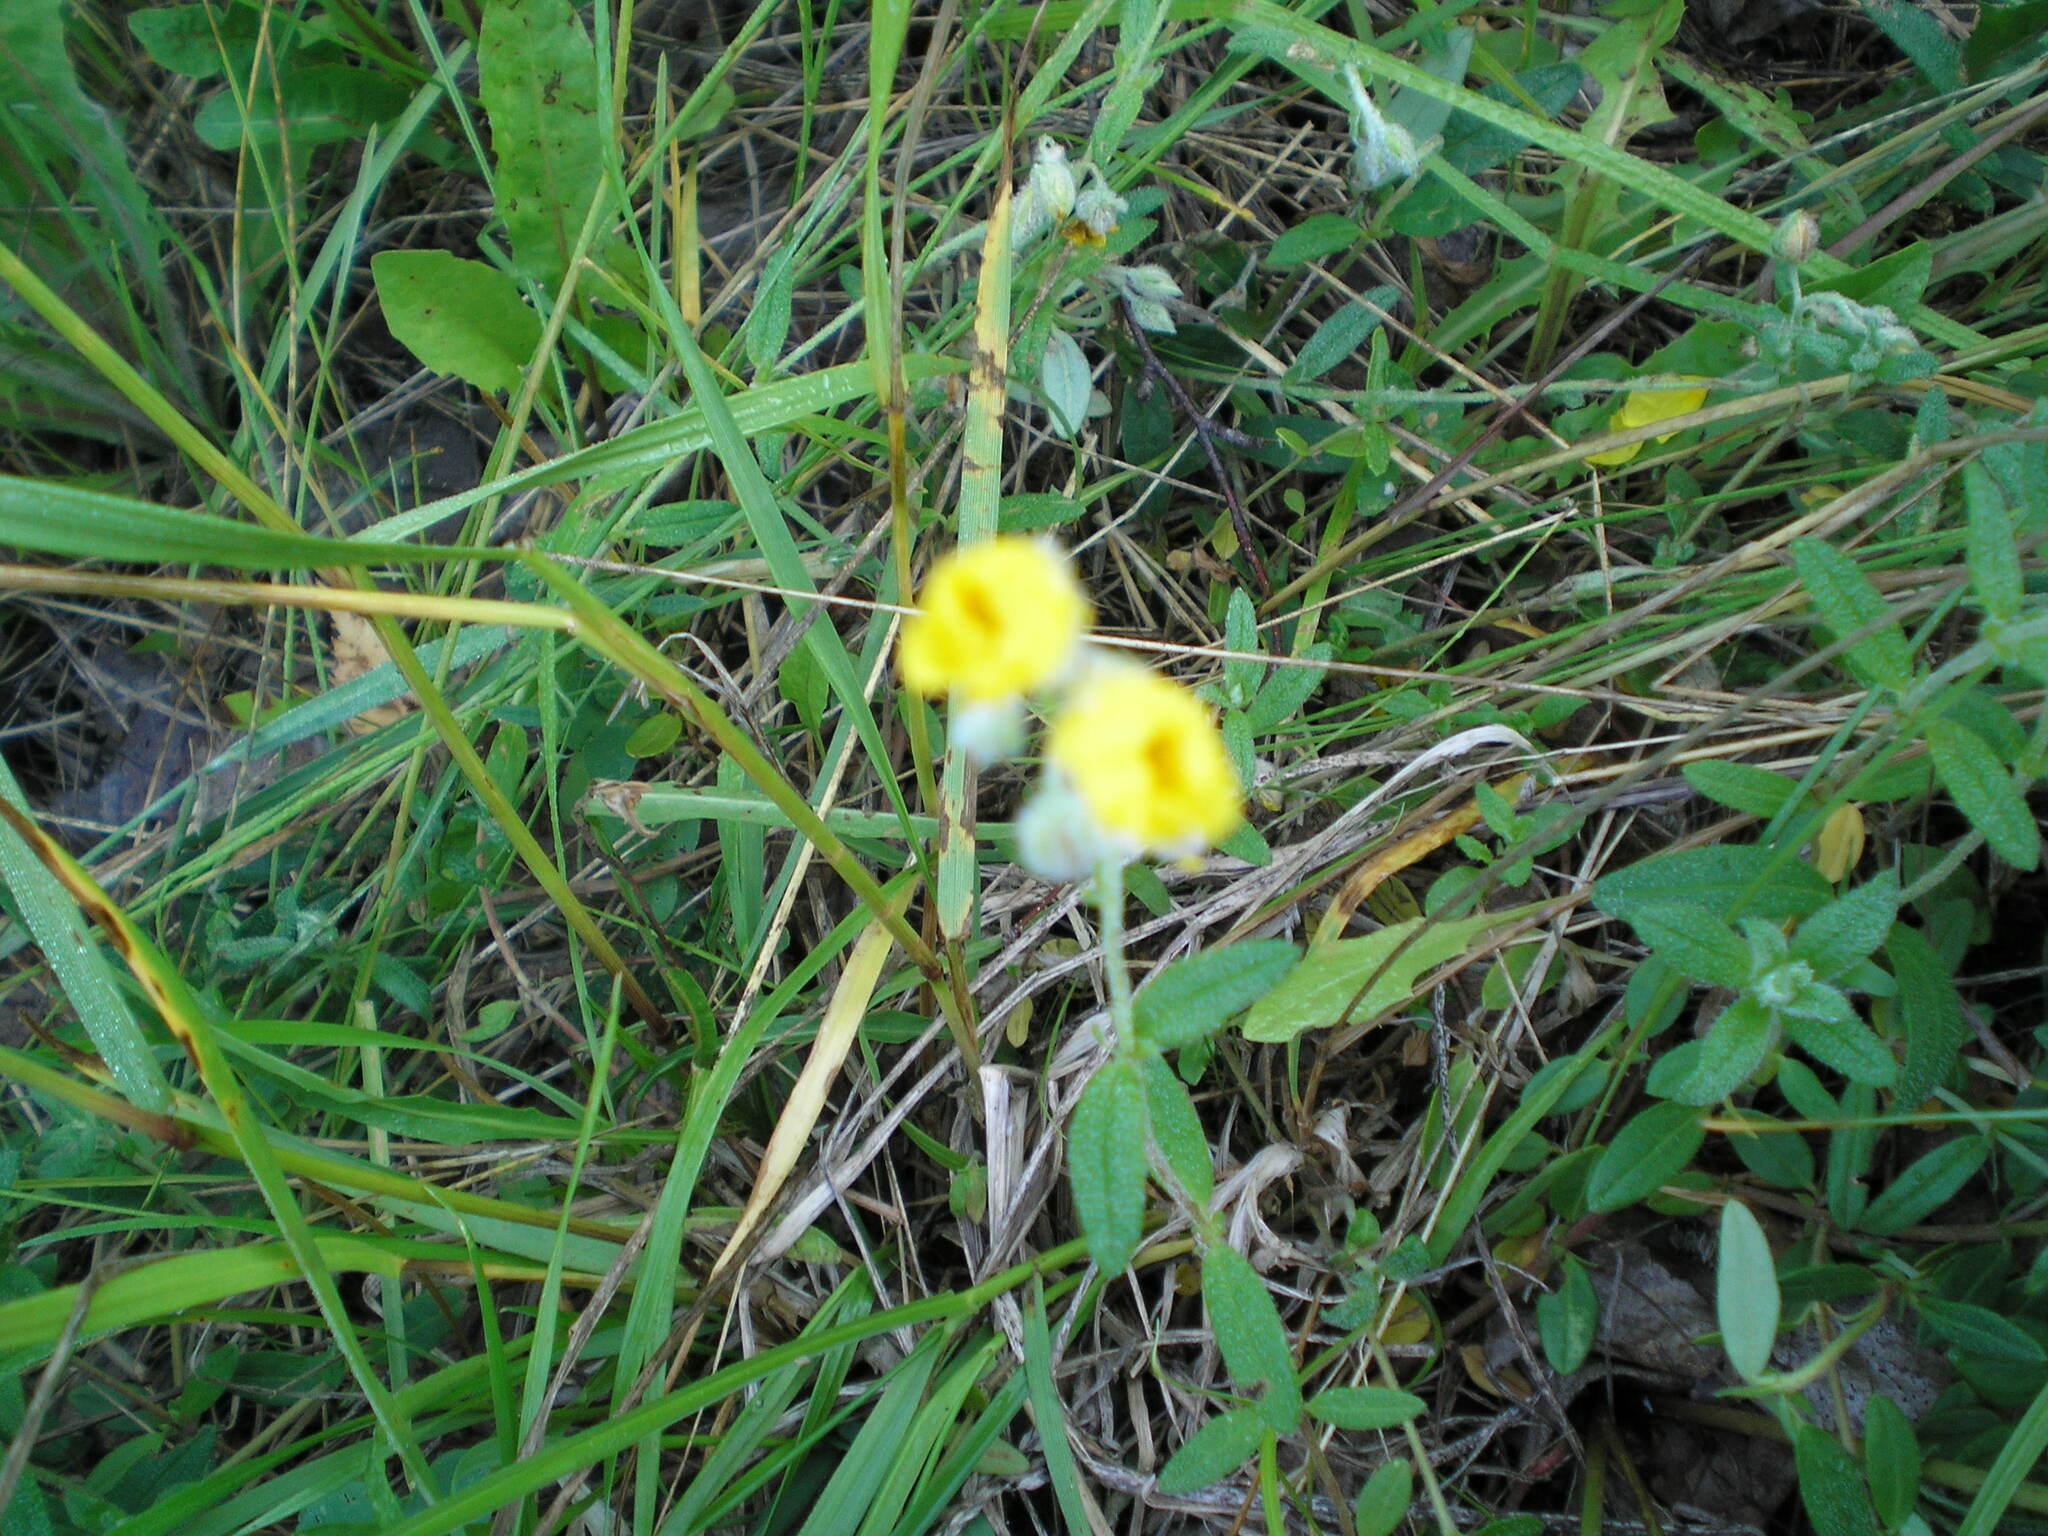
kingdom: Plantae
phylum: Tracheophyta
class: Magnoliopsida
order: Malvales
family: Cistaceae
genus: Helianthemum
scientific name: Helianthemum nummularium
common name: Common rock-rose
